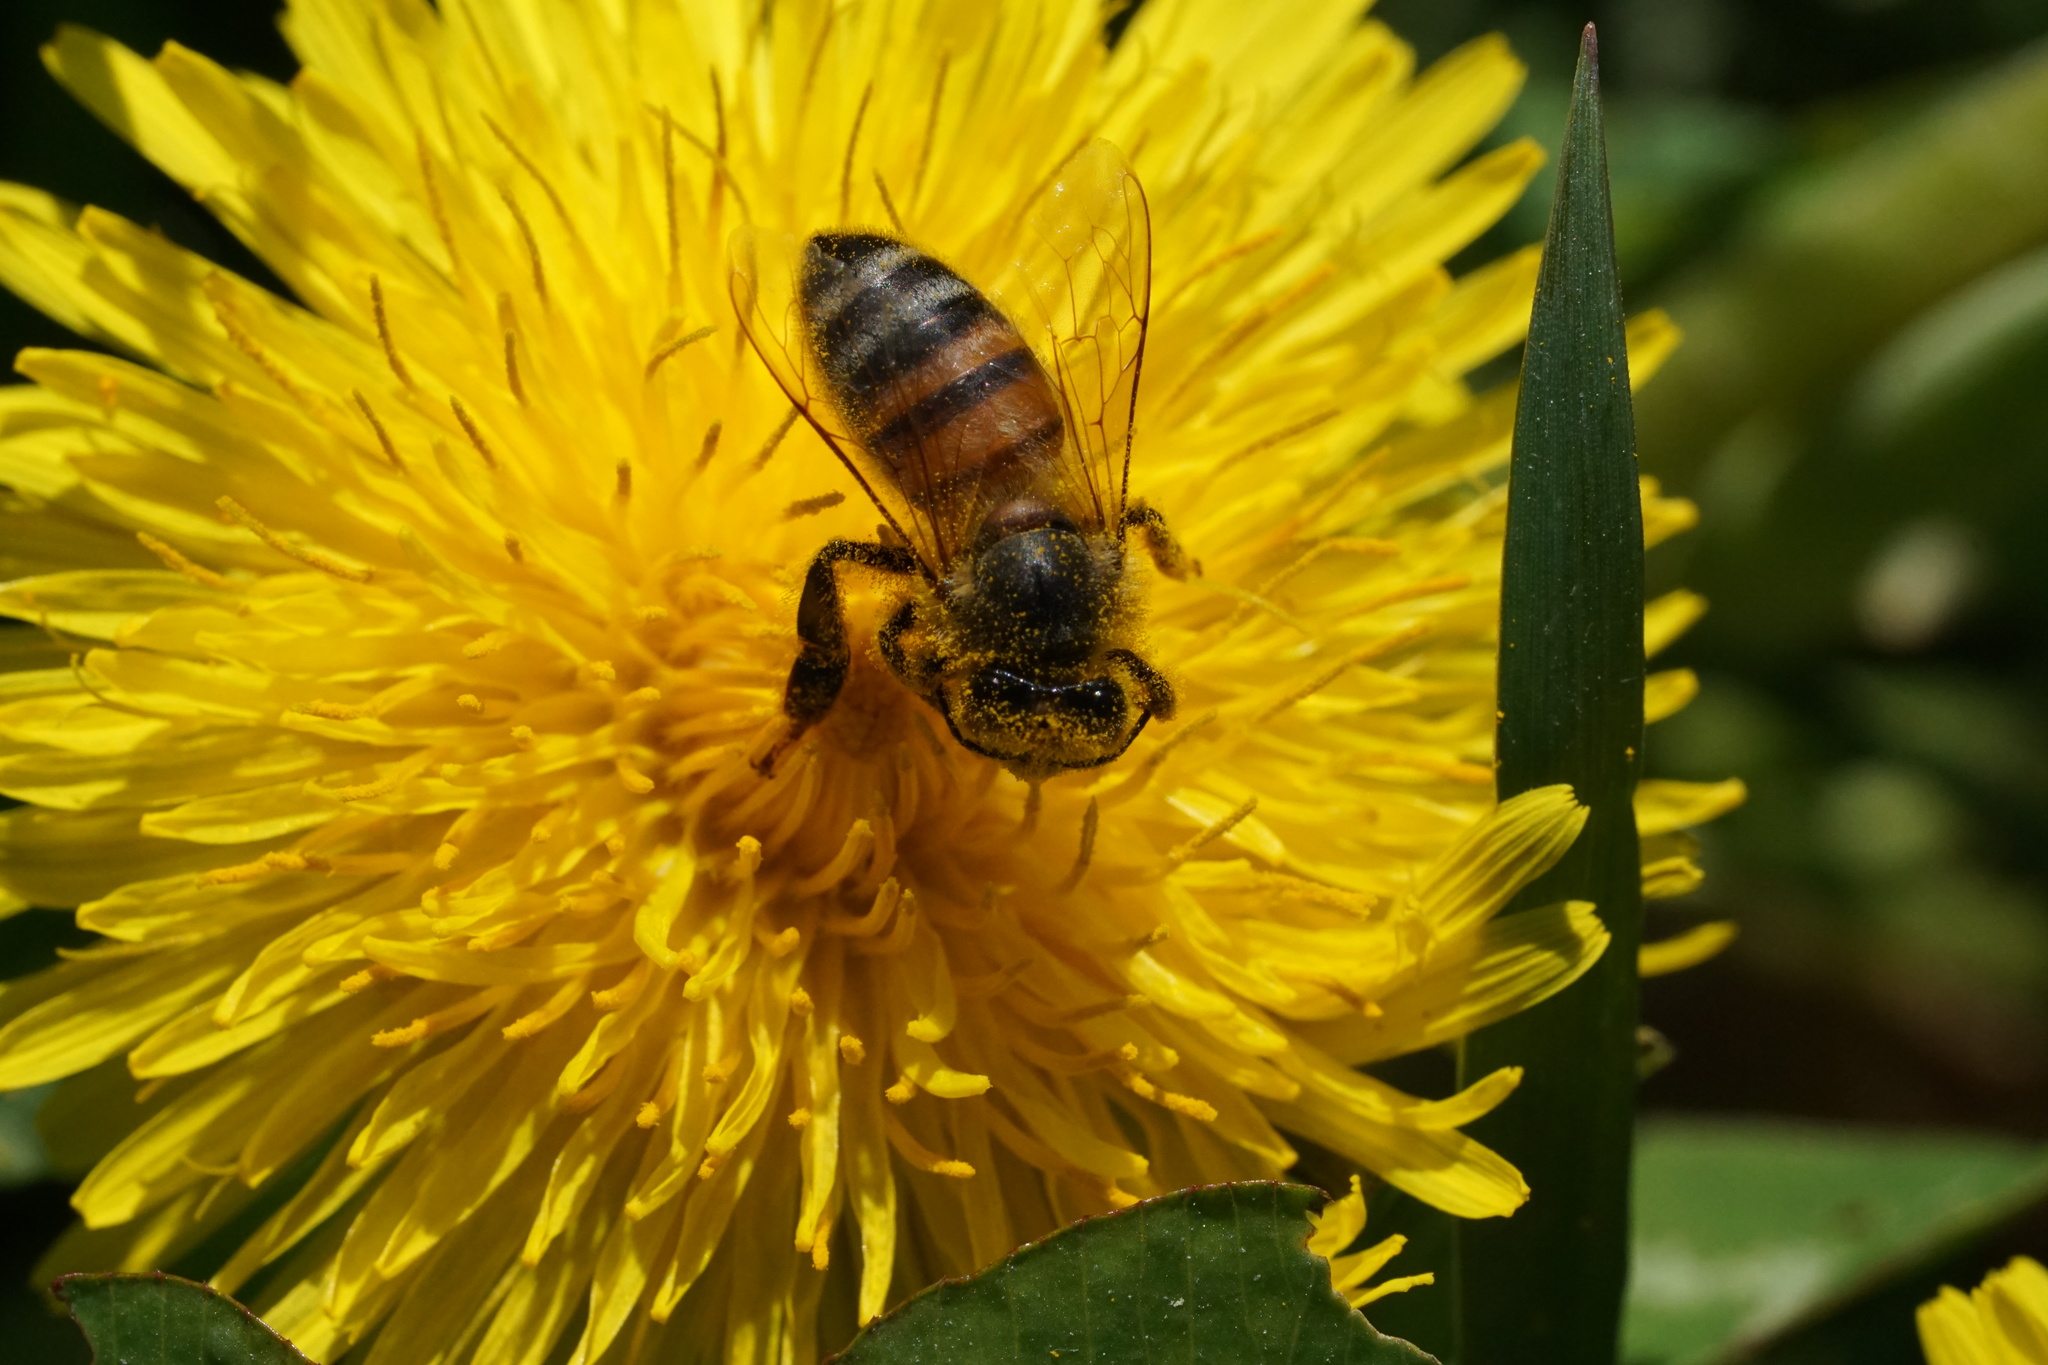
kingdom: Animalia
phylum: Arthropoda
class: Insecta
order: Hymenoptera
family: Apidae
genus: Apis
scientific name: Apis mellifera
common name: Honey bee
